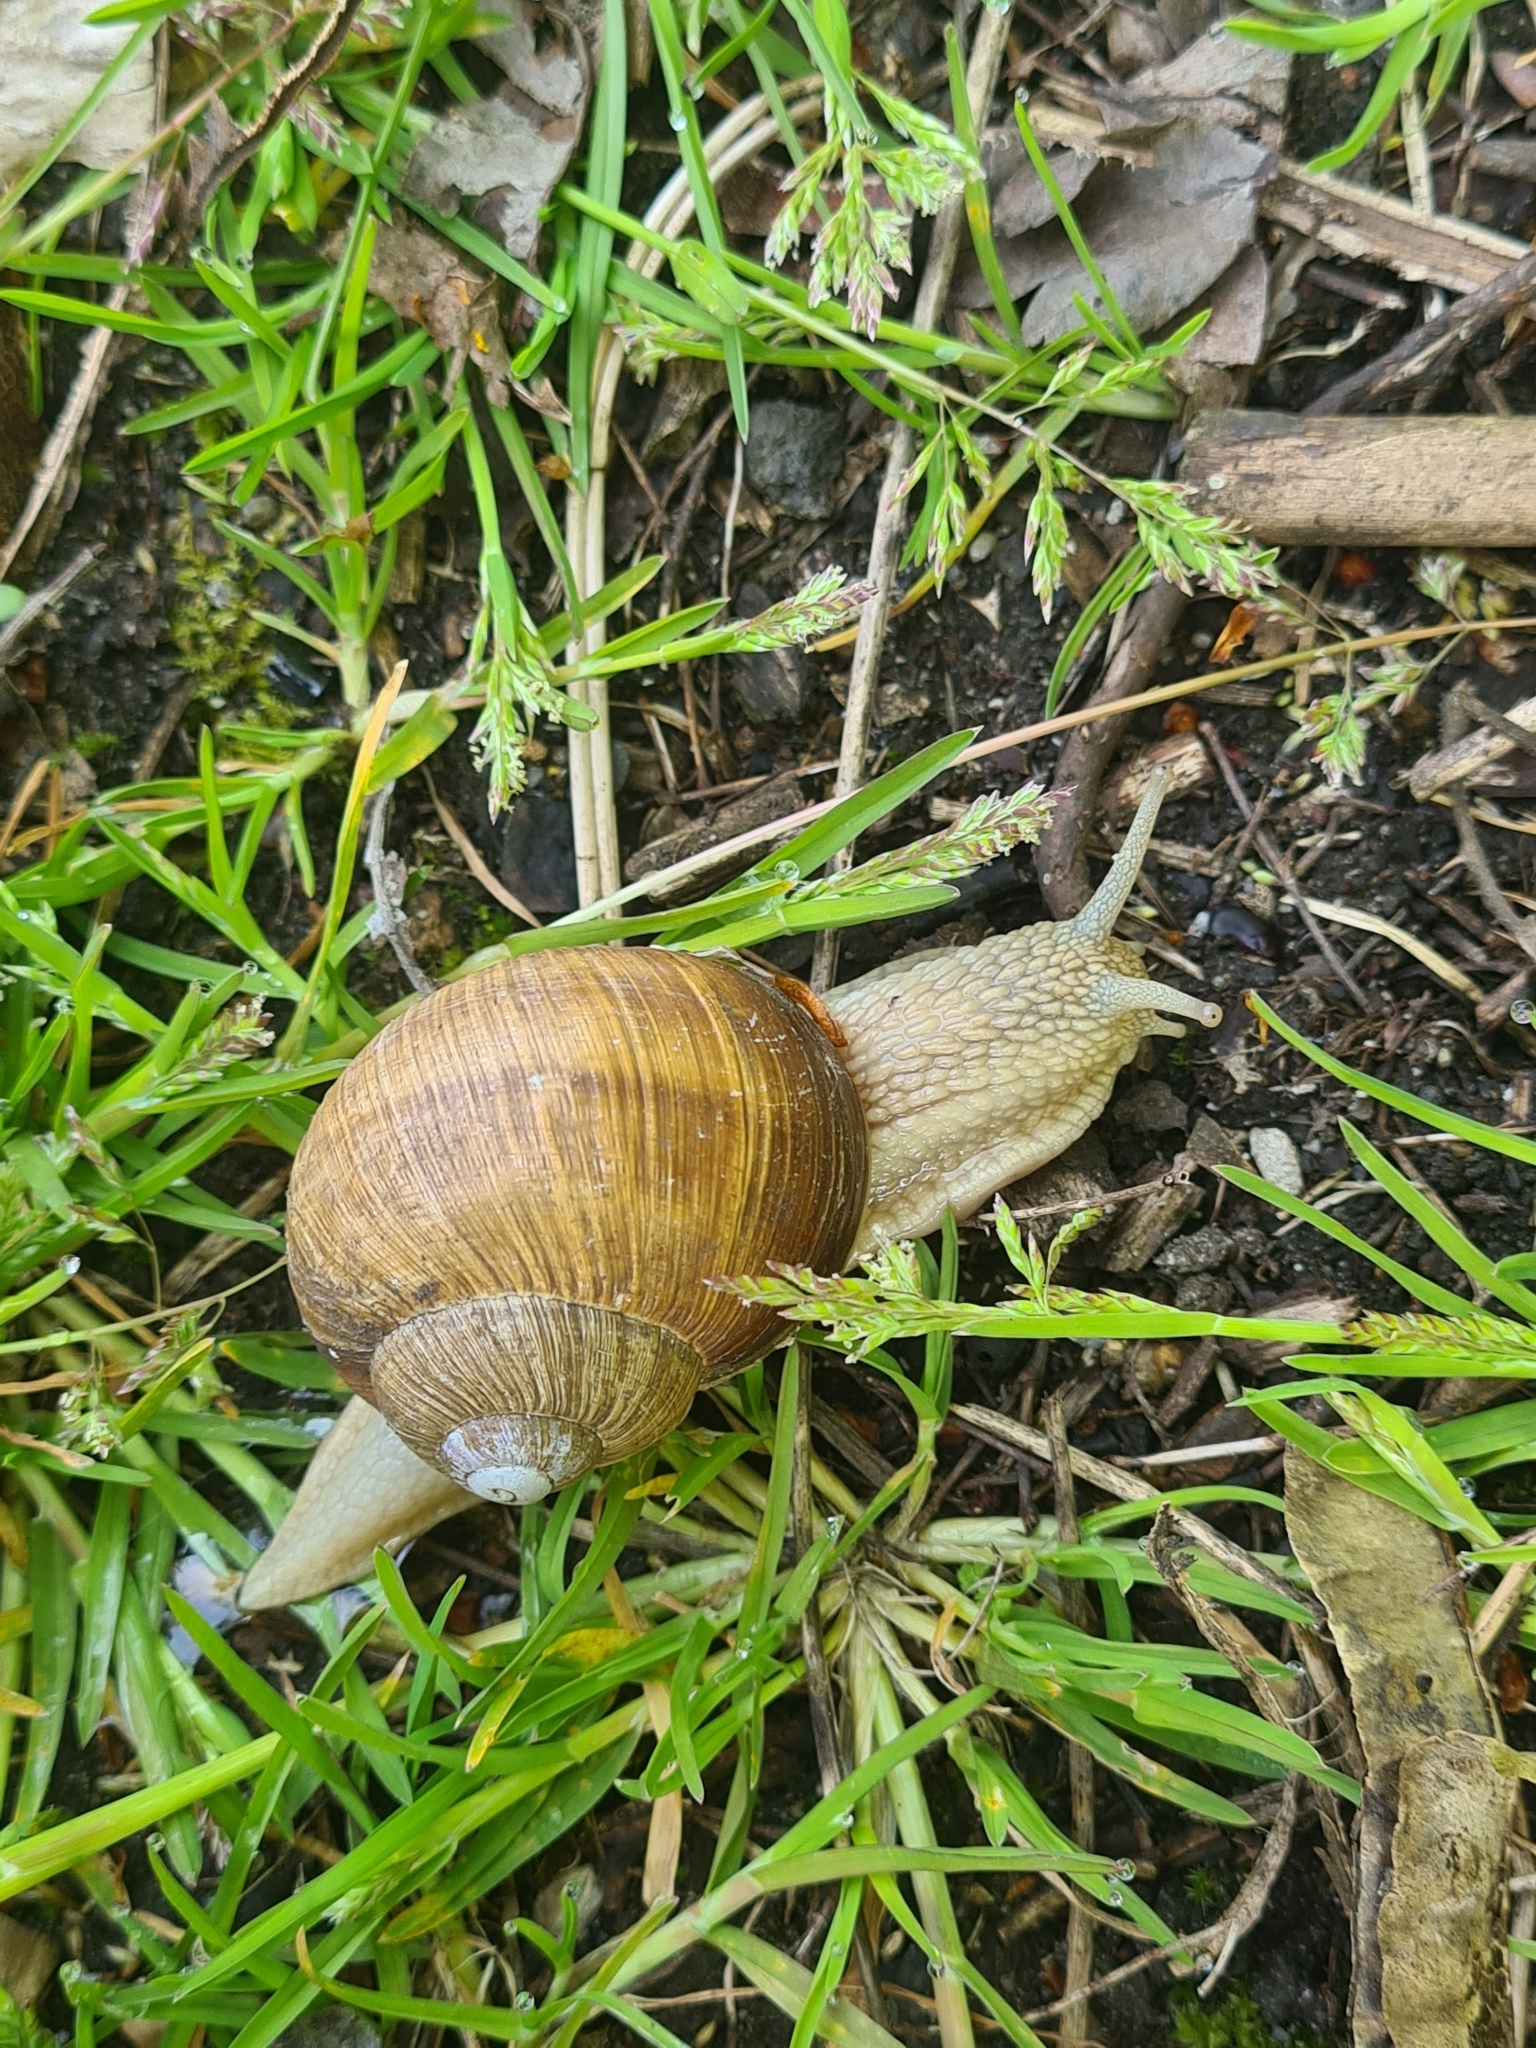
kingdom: Animalia
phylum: Mollusca
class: Gastropoda
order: Stylommatophora
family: Helicidae
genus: Helix
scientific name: Helix pomatia
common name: Roman snail
